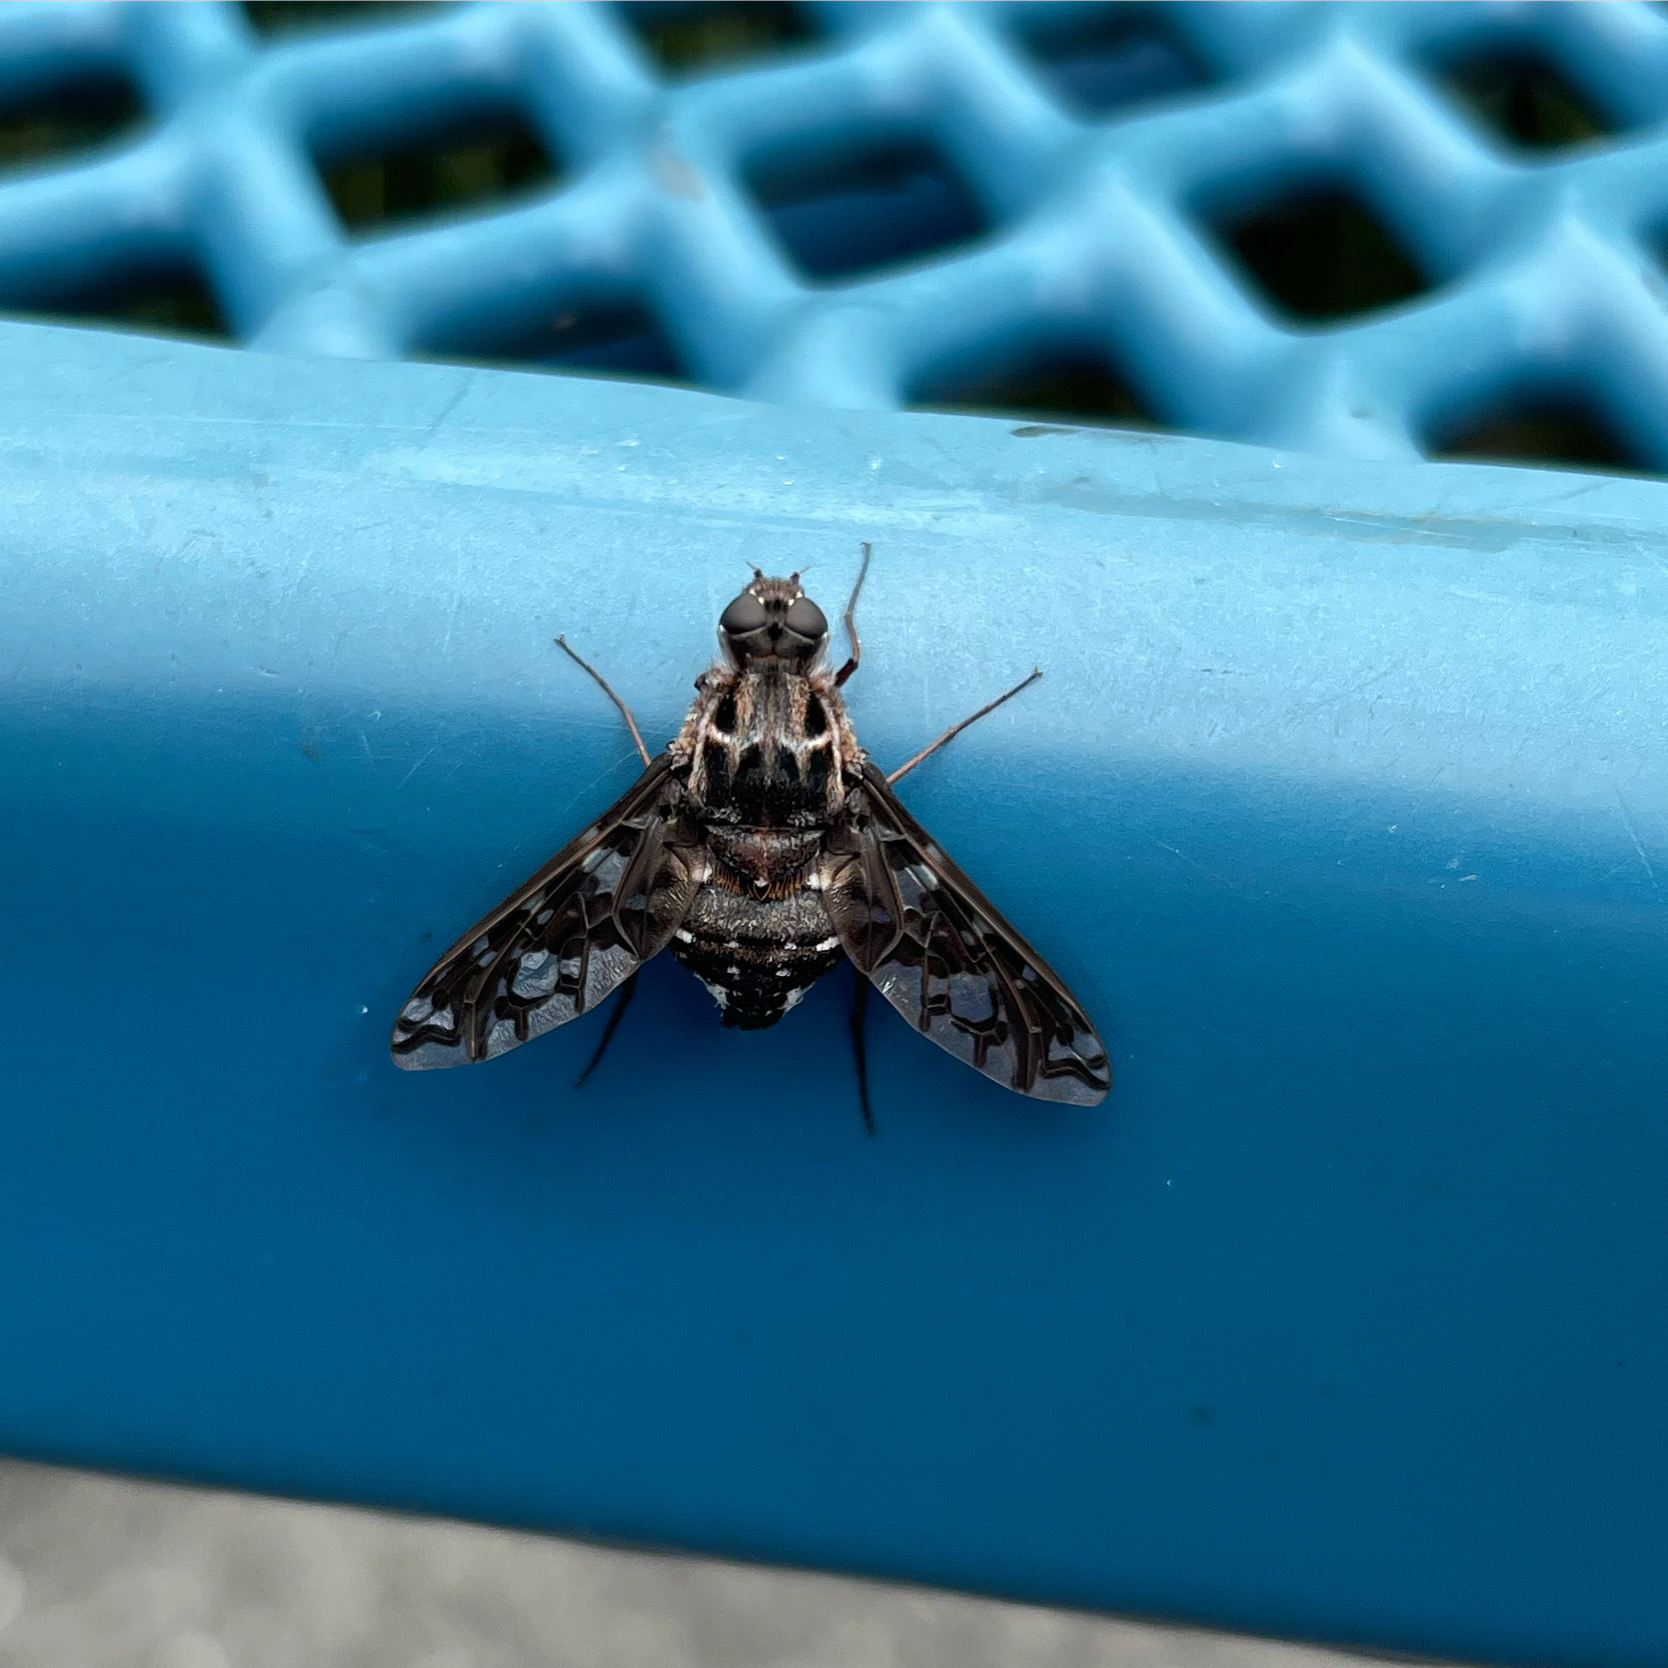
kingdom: Animalia
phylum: Arthropoda
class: Insecta
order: Diptera
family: Bombyliidae
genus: Xenox
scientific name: Xenox tigrinus
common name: Tiger bee fly
